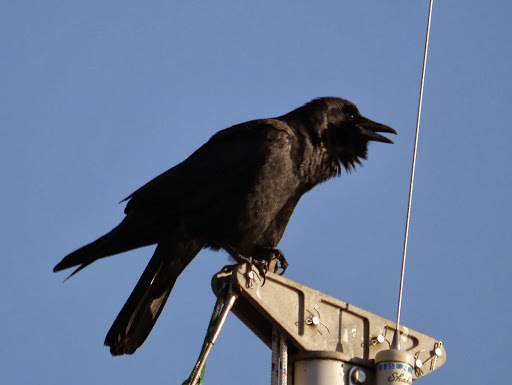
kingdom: Animalia
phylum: Chordata
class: Aves
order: Passeriformes
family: Corvidae
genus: Corvus
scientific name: Corvus corax
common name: Common raven
